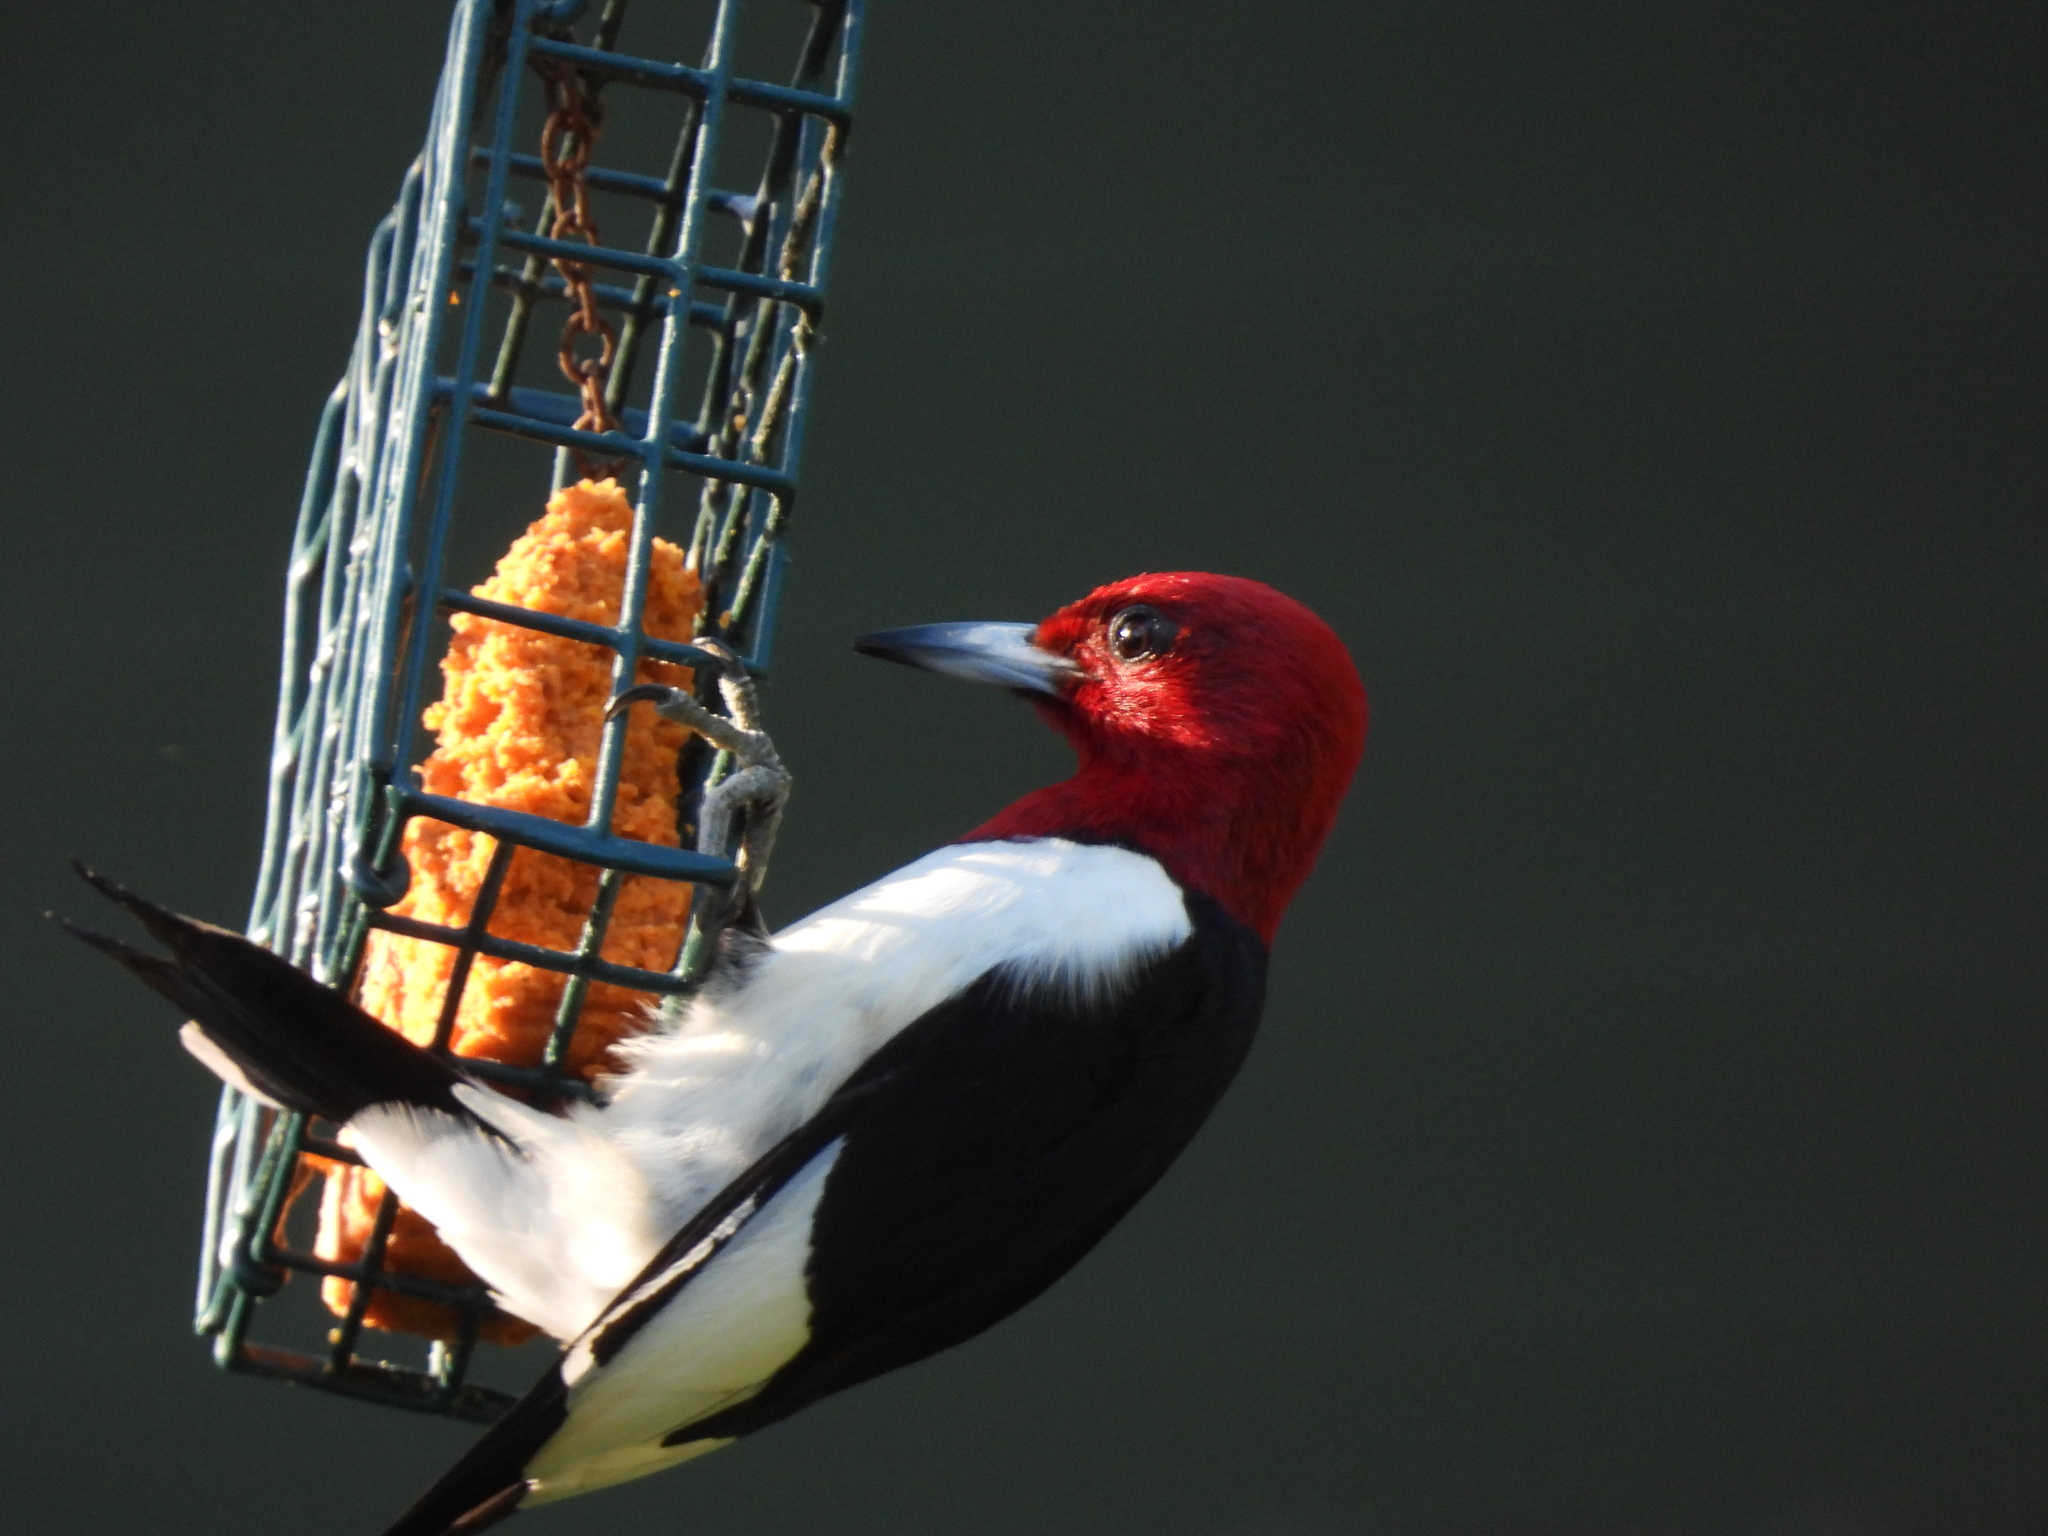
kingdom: Animalia
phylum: Chordata
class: Aves
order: Piciformes
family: Picidae
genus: Melanerpes
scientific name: Melanerpes erythrocephalus
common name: Red-headed woodpecker
